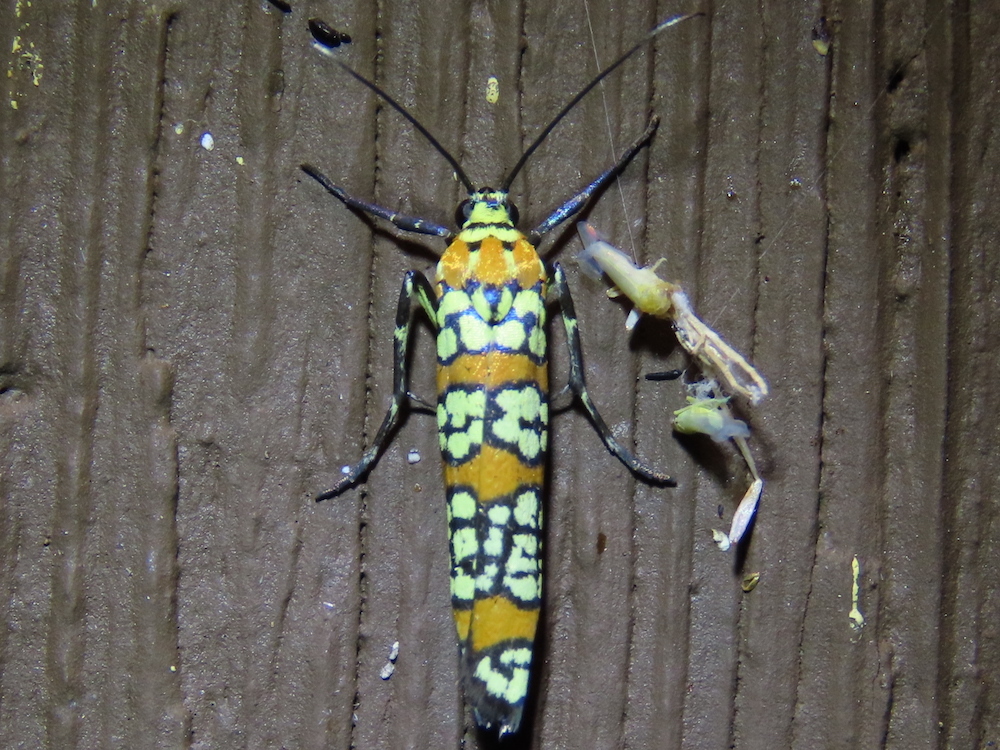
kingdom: Animalia
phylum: Arthropoda
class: Insecta
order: Lepidoptera
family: Attevidae
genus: Atteva
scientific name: Atteva punctella
